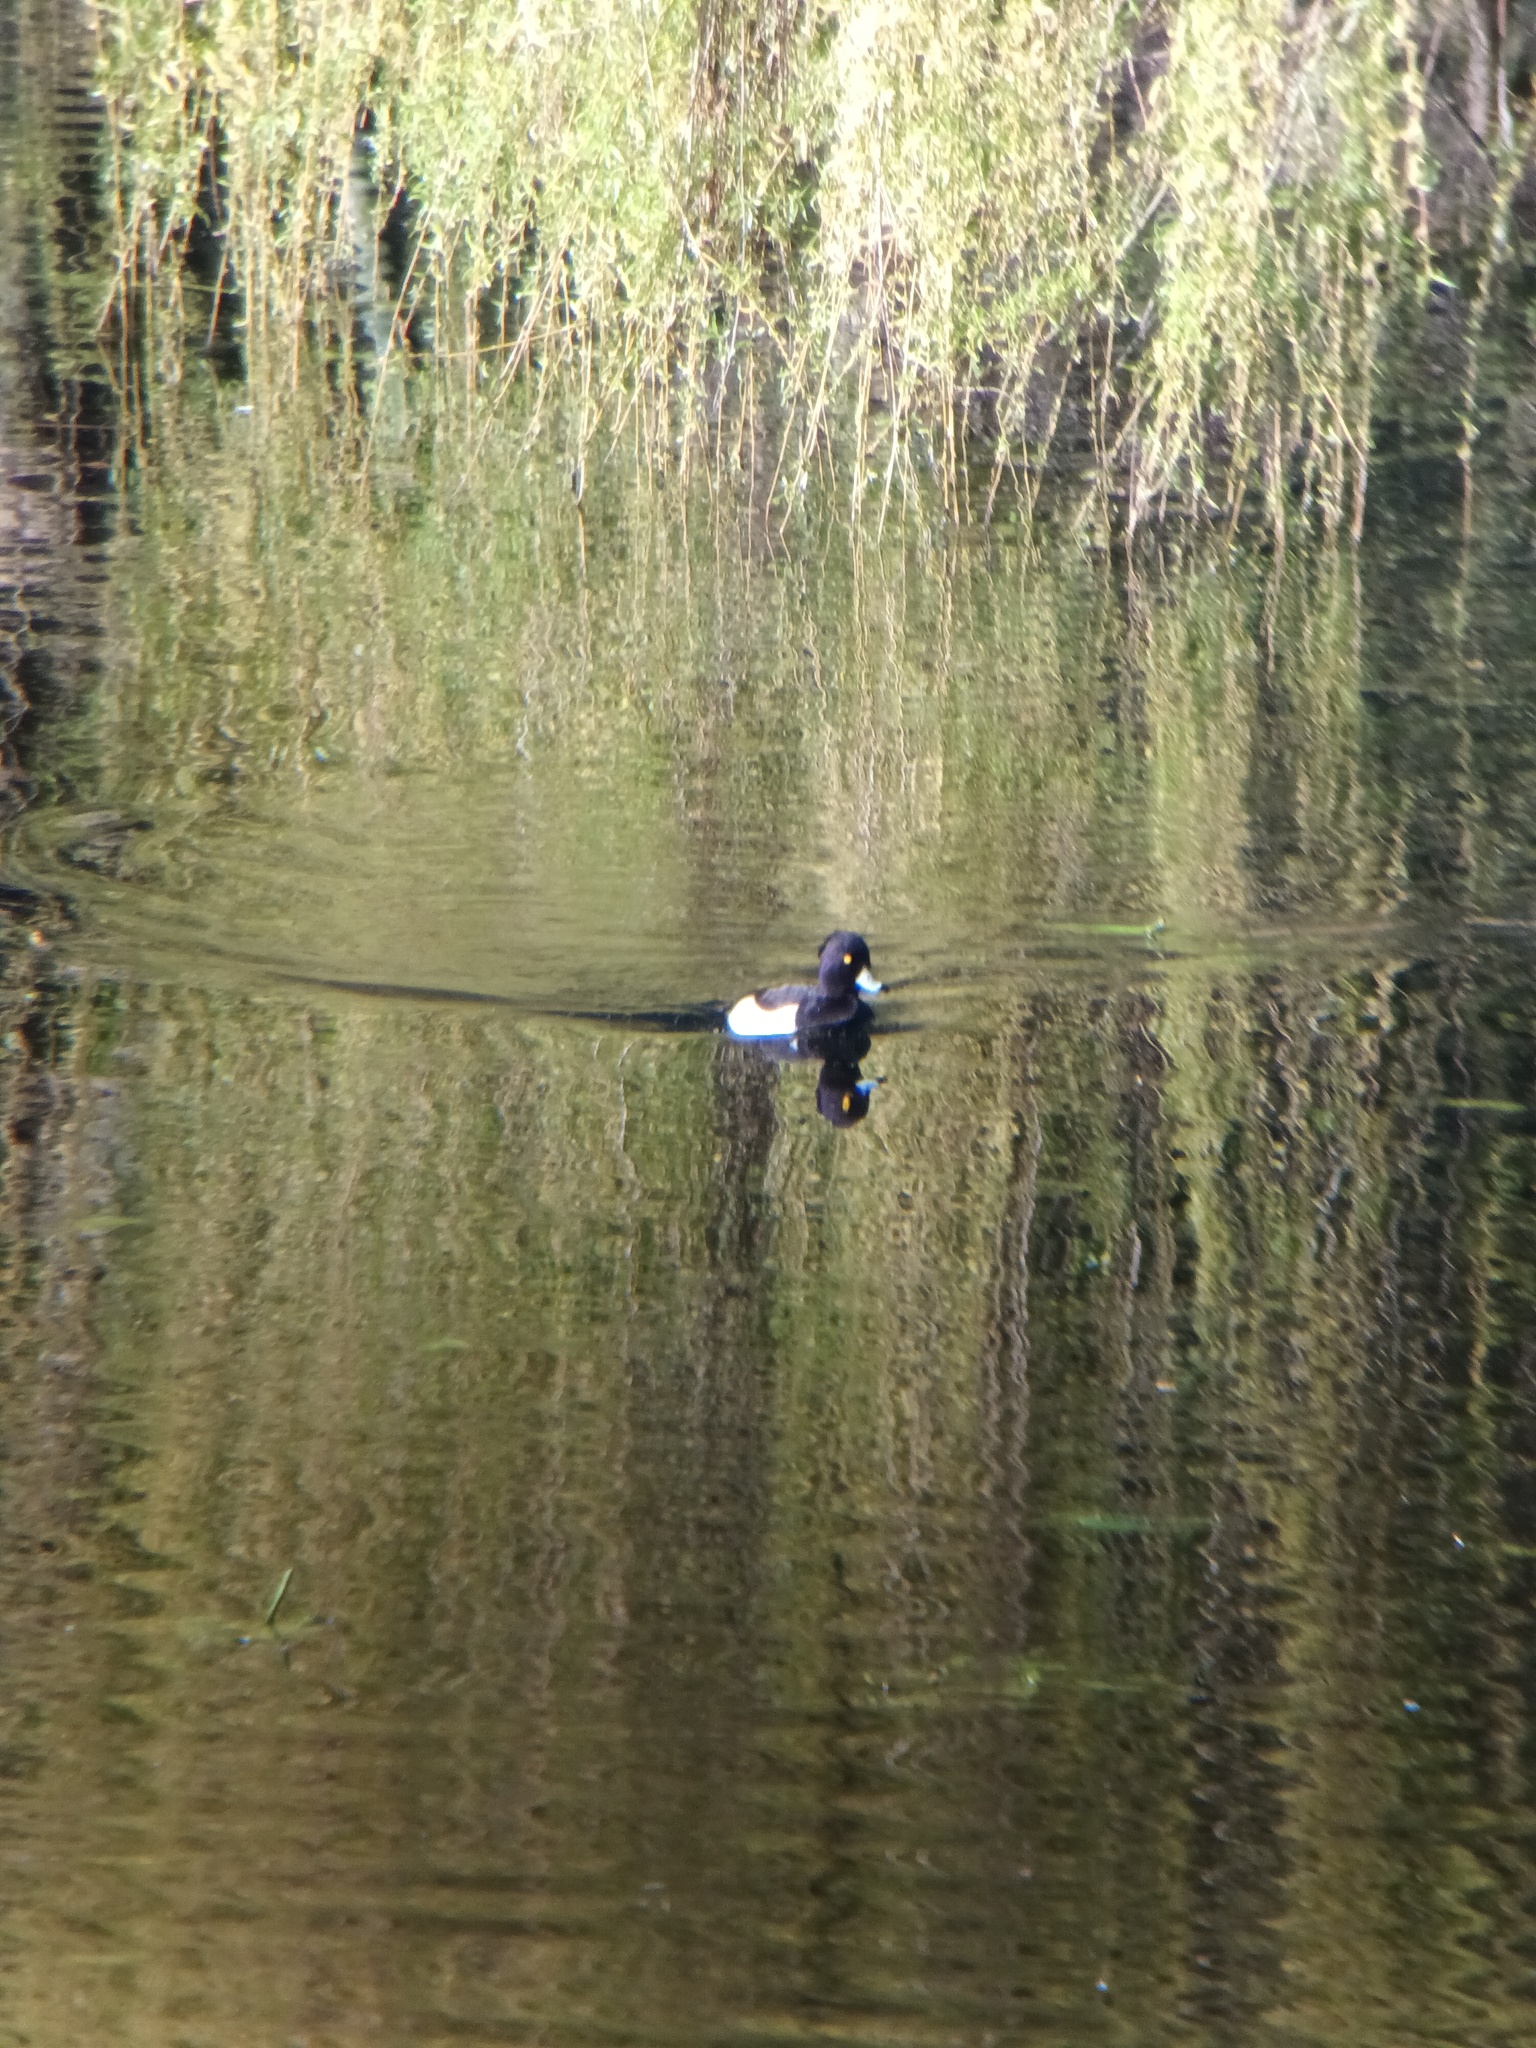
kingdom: Animalia
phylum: Chordata
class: Aves
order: Anseriformes
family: Anatidae
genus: Aythya
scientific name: Aythya fuligula
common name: Tufted duck
